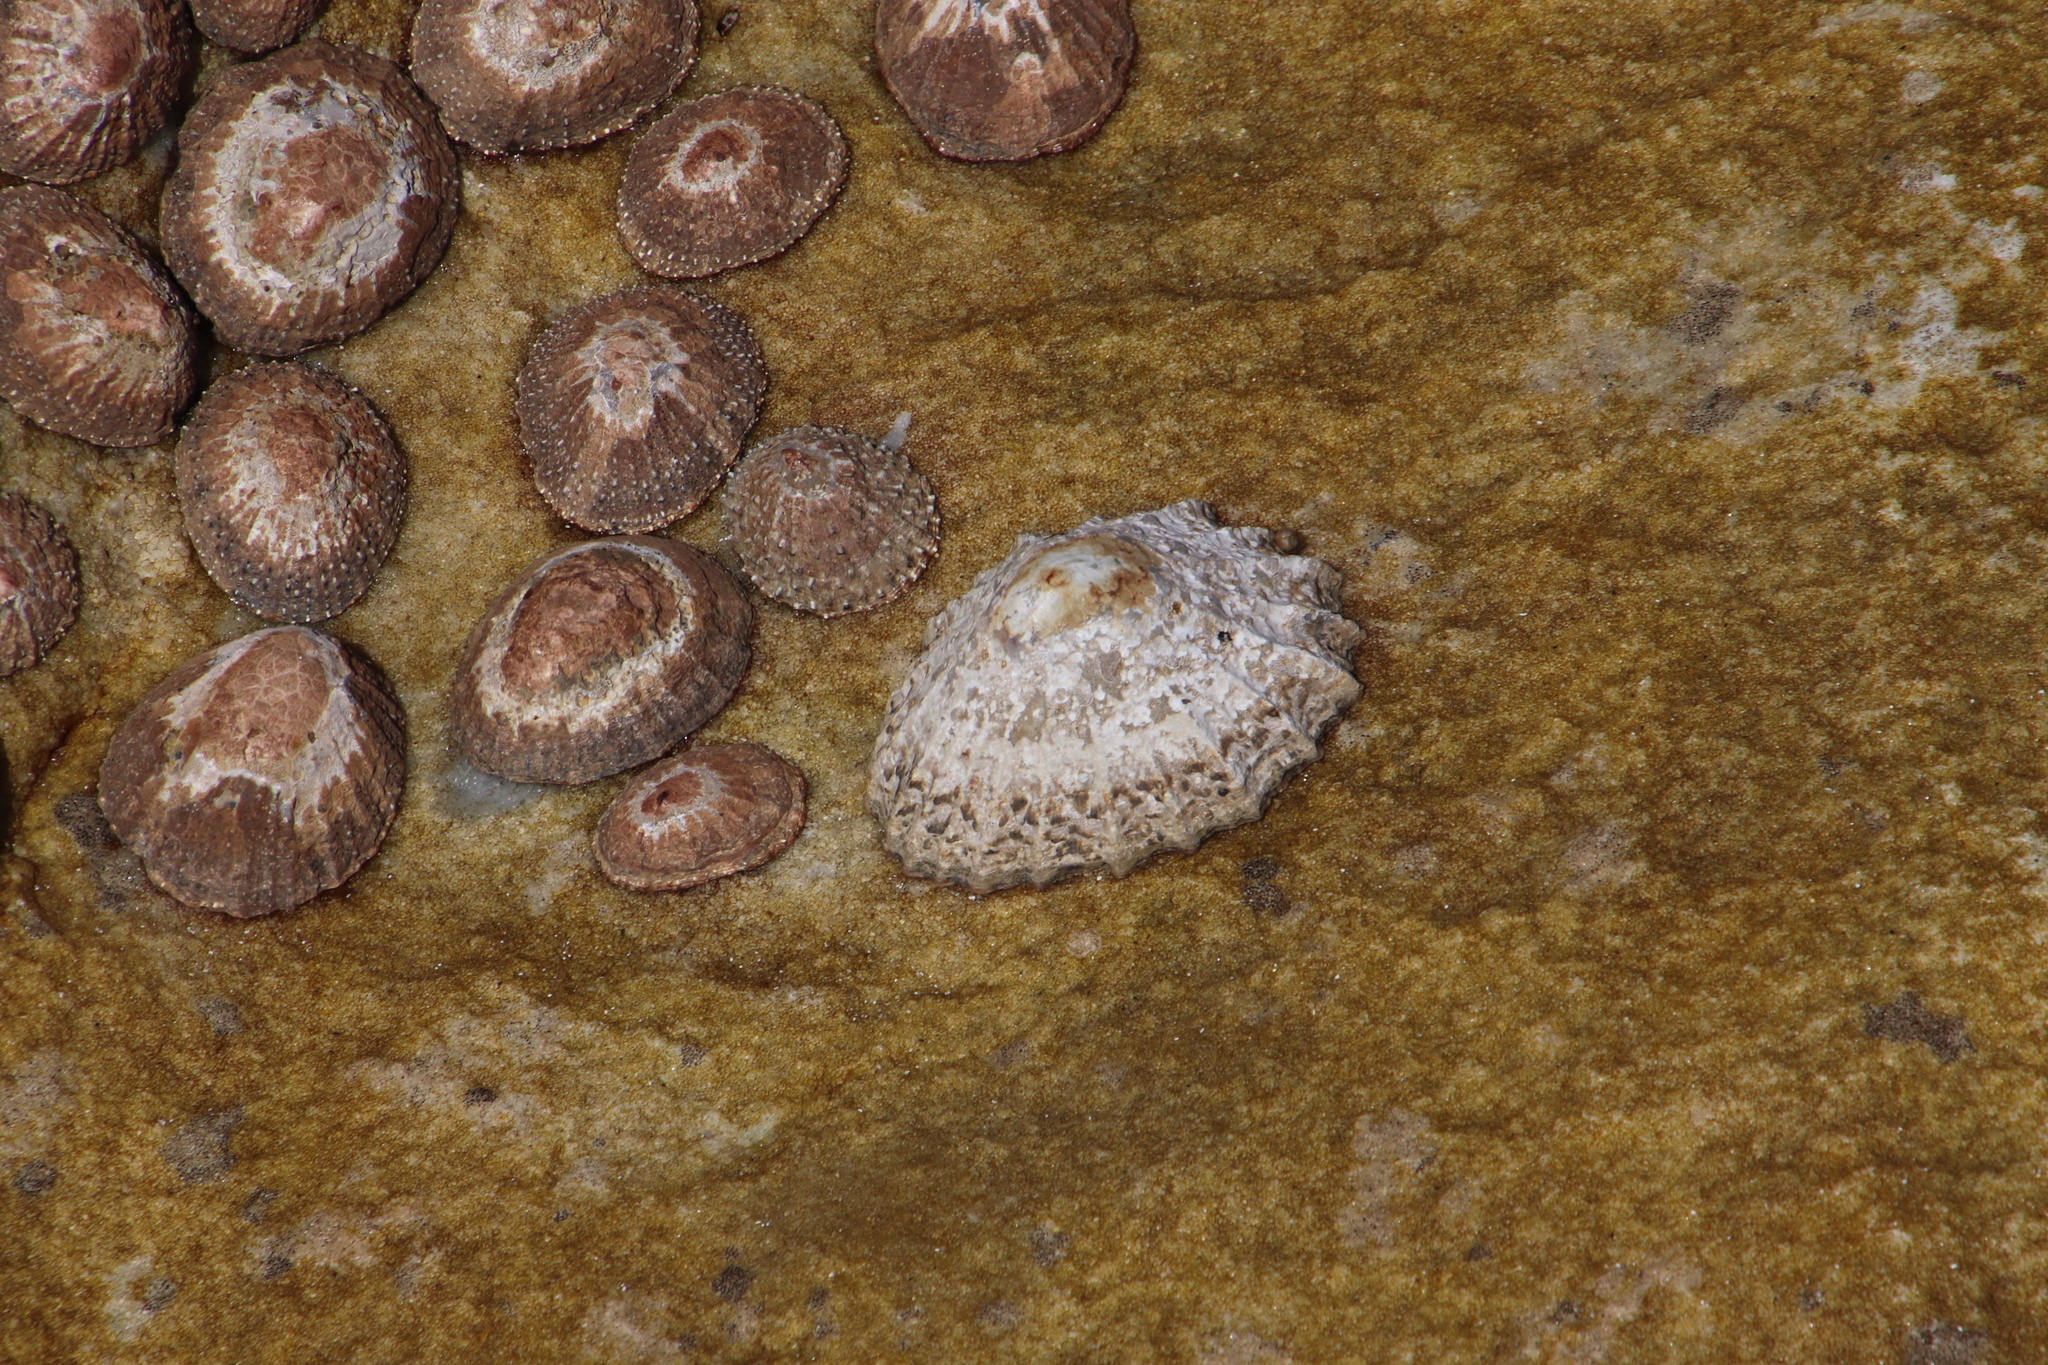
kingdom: Animalia
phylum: Mollusca
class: Gastropoda
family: Patellidae
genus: Cymbula
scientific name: Cymbula granatina
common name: Granite limpet
